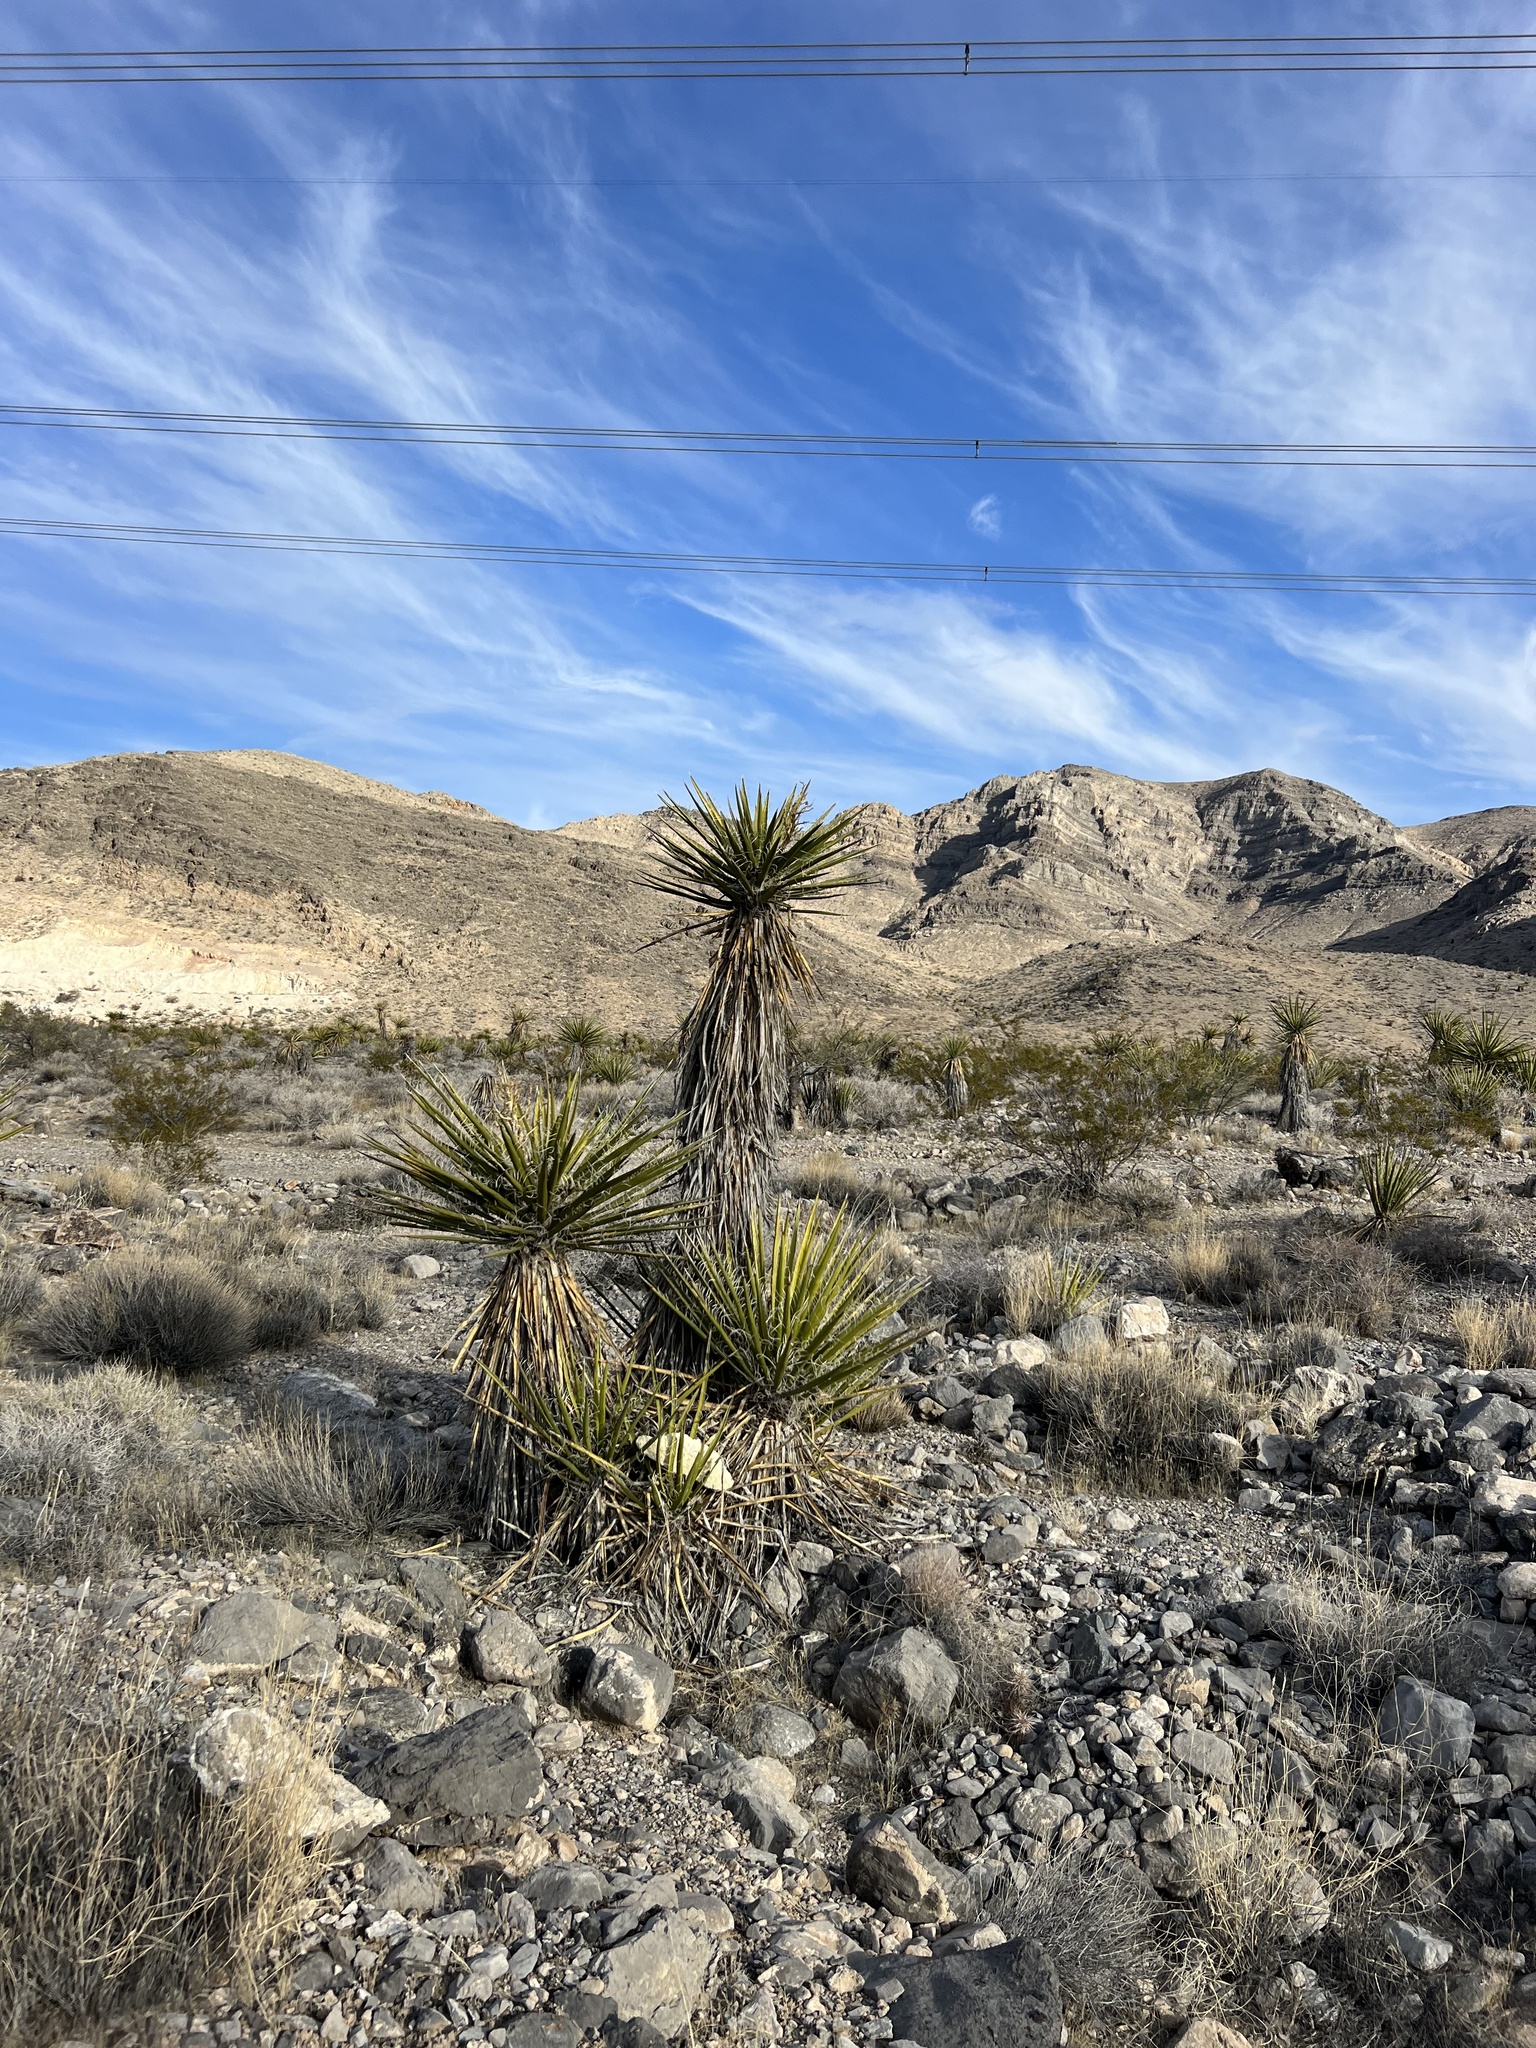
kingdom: Plantae
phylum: Tracheophyta
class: Liliopsida
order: Asparagales
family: Asparagaceae
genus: Yucca
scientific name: Yucca schidigera
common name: Mojave yucca
